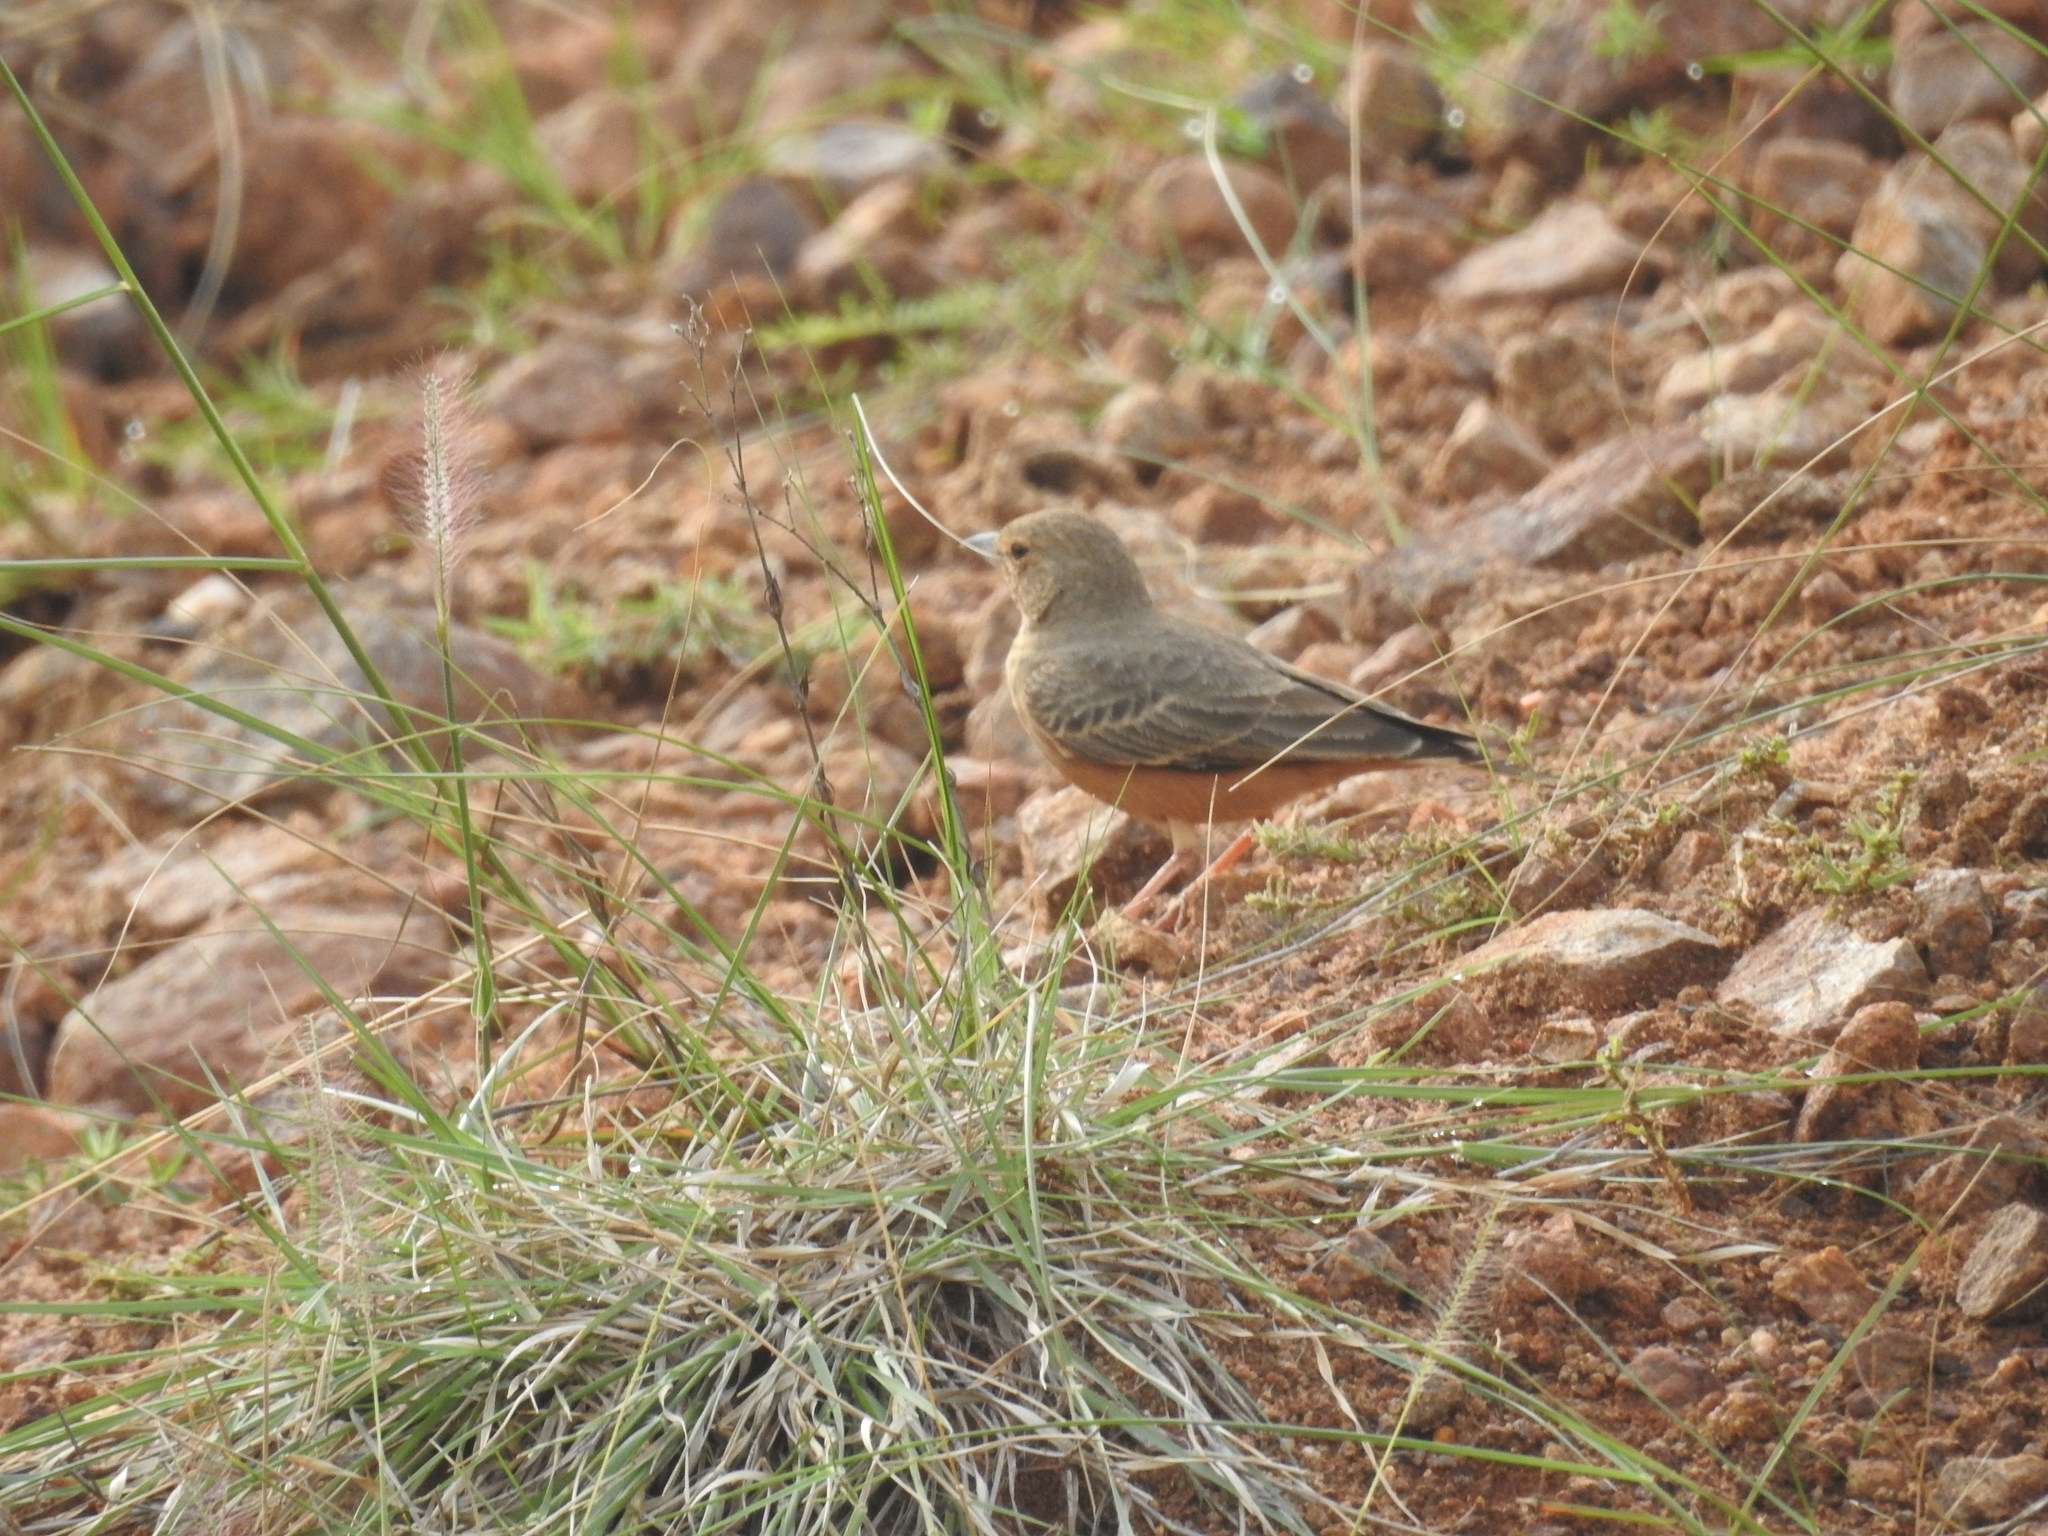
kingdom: Animalia
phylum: Chordata
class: Aves
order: Passeriformes
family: Alaudidae
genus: Ammomanes
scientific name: Ammomanes phoenicura
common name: Rufous-tailed lark
